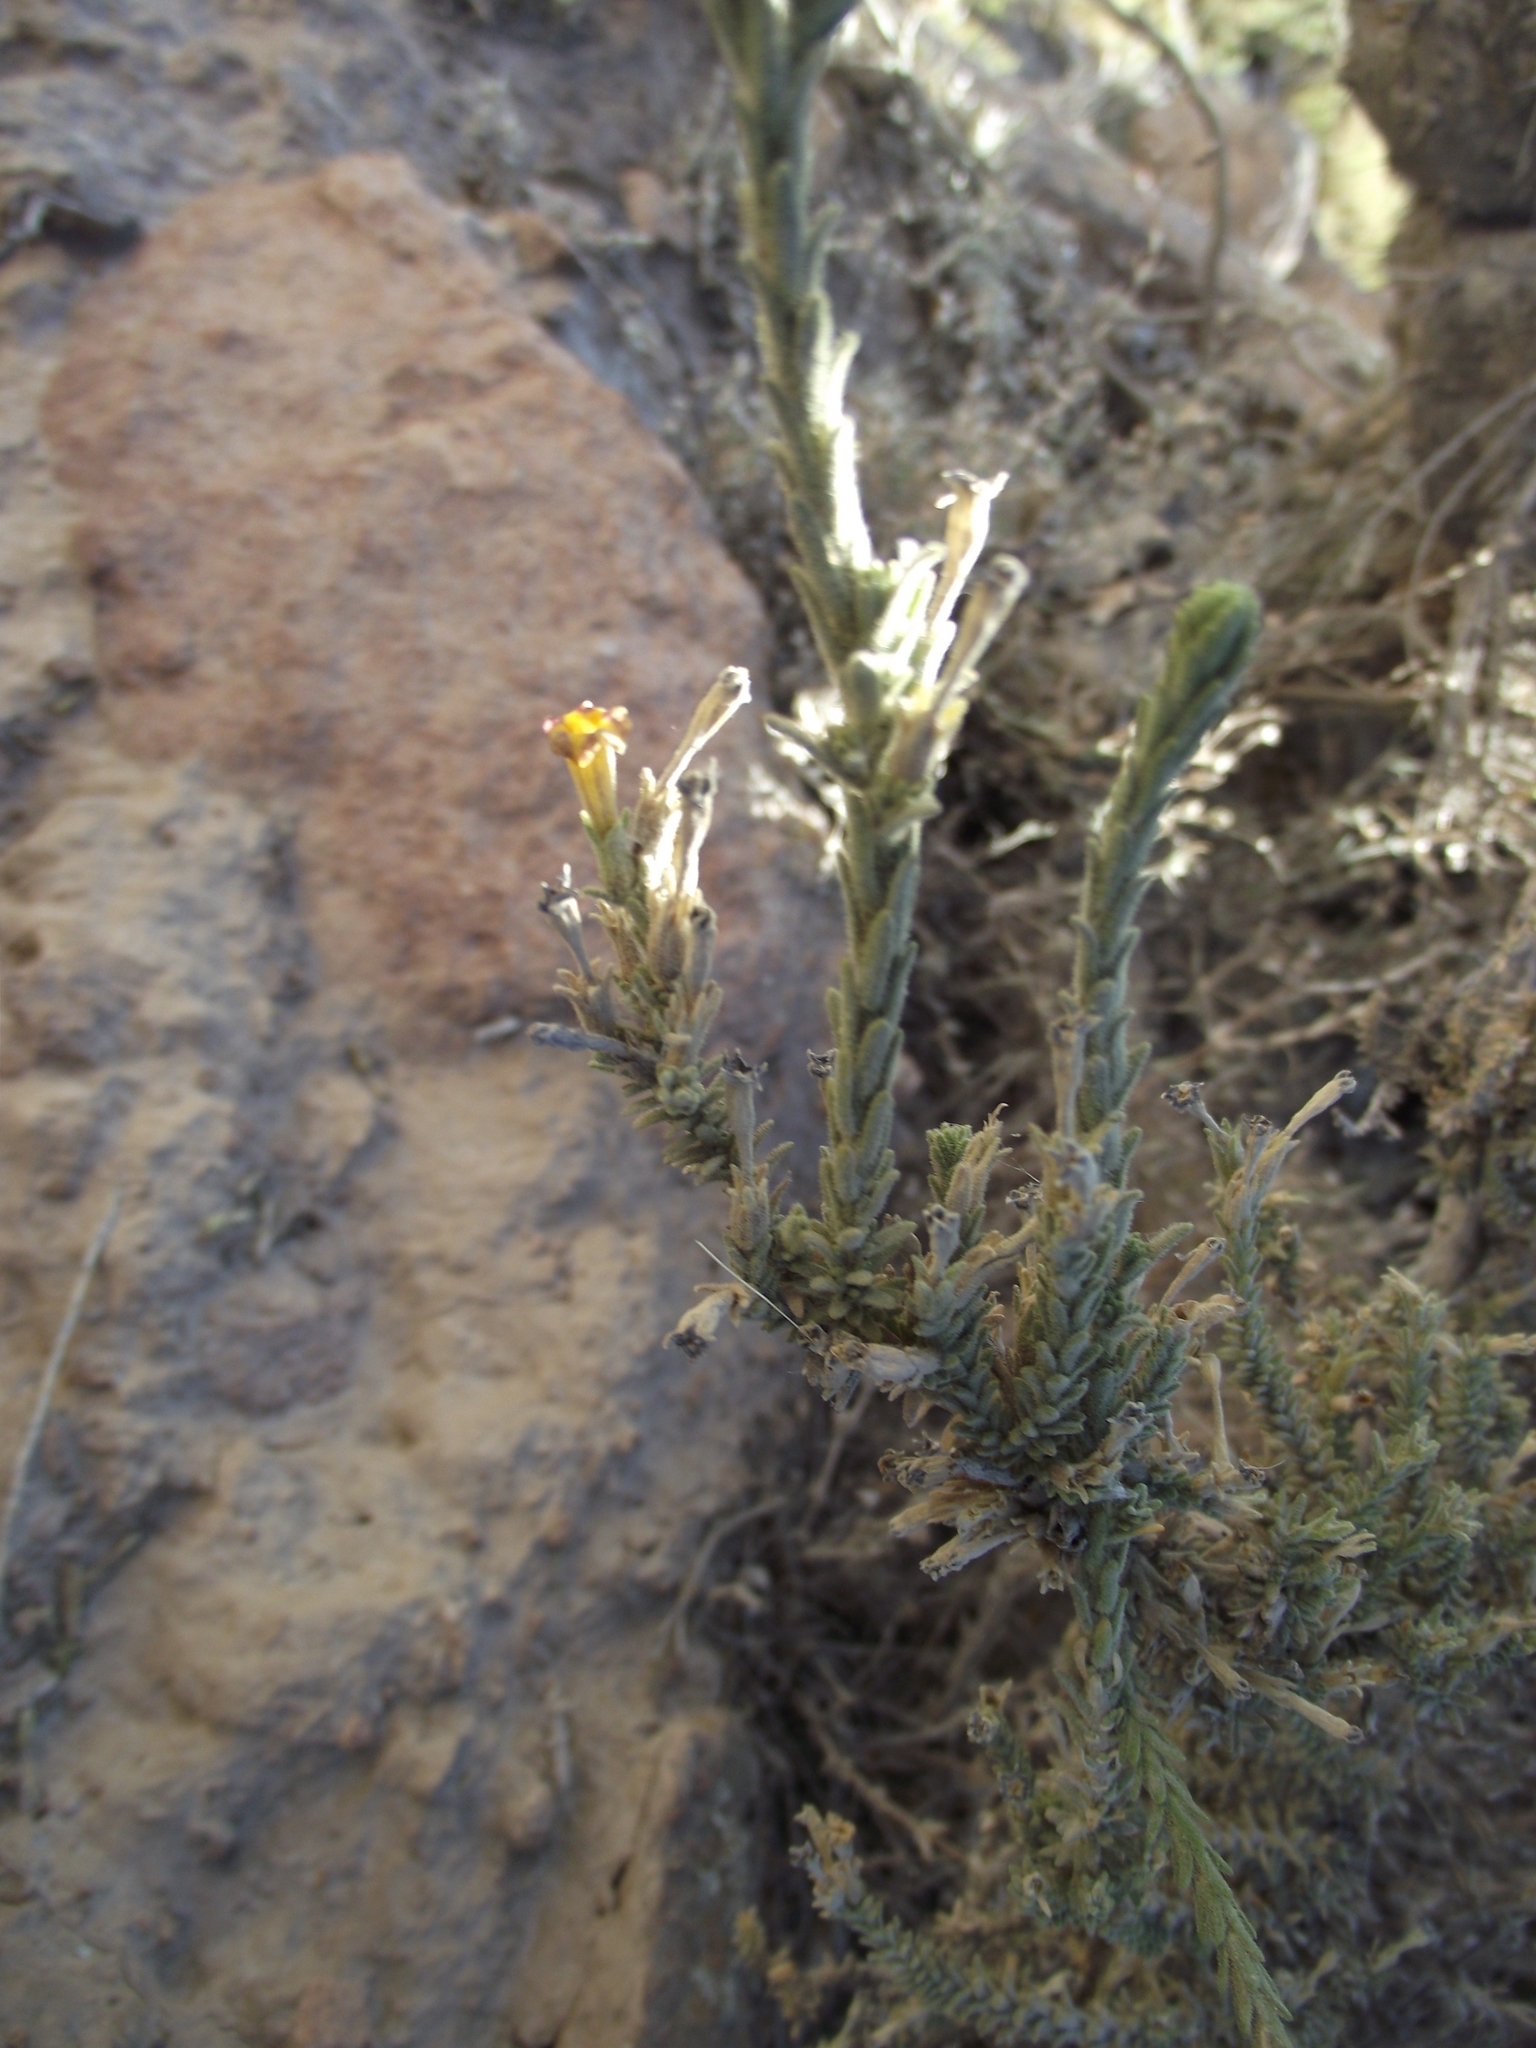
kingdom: Plantae
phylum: Tracheophyta
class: Magnoliopsida
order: Brassicales
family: Brassicaceae
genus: Neuontobotrys
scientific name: Neuontobotrys tarapacana
